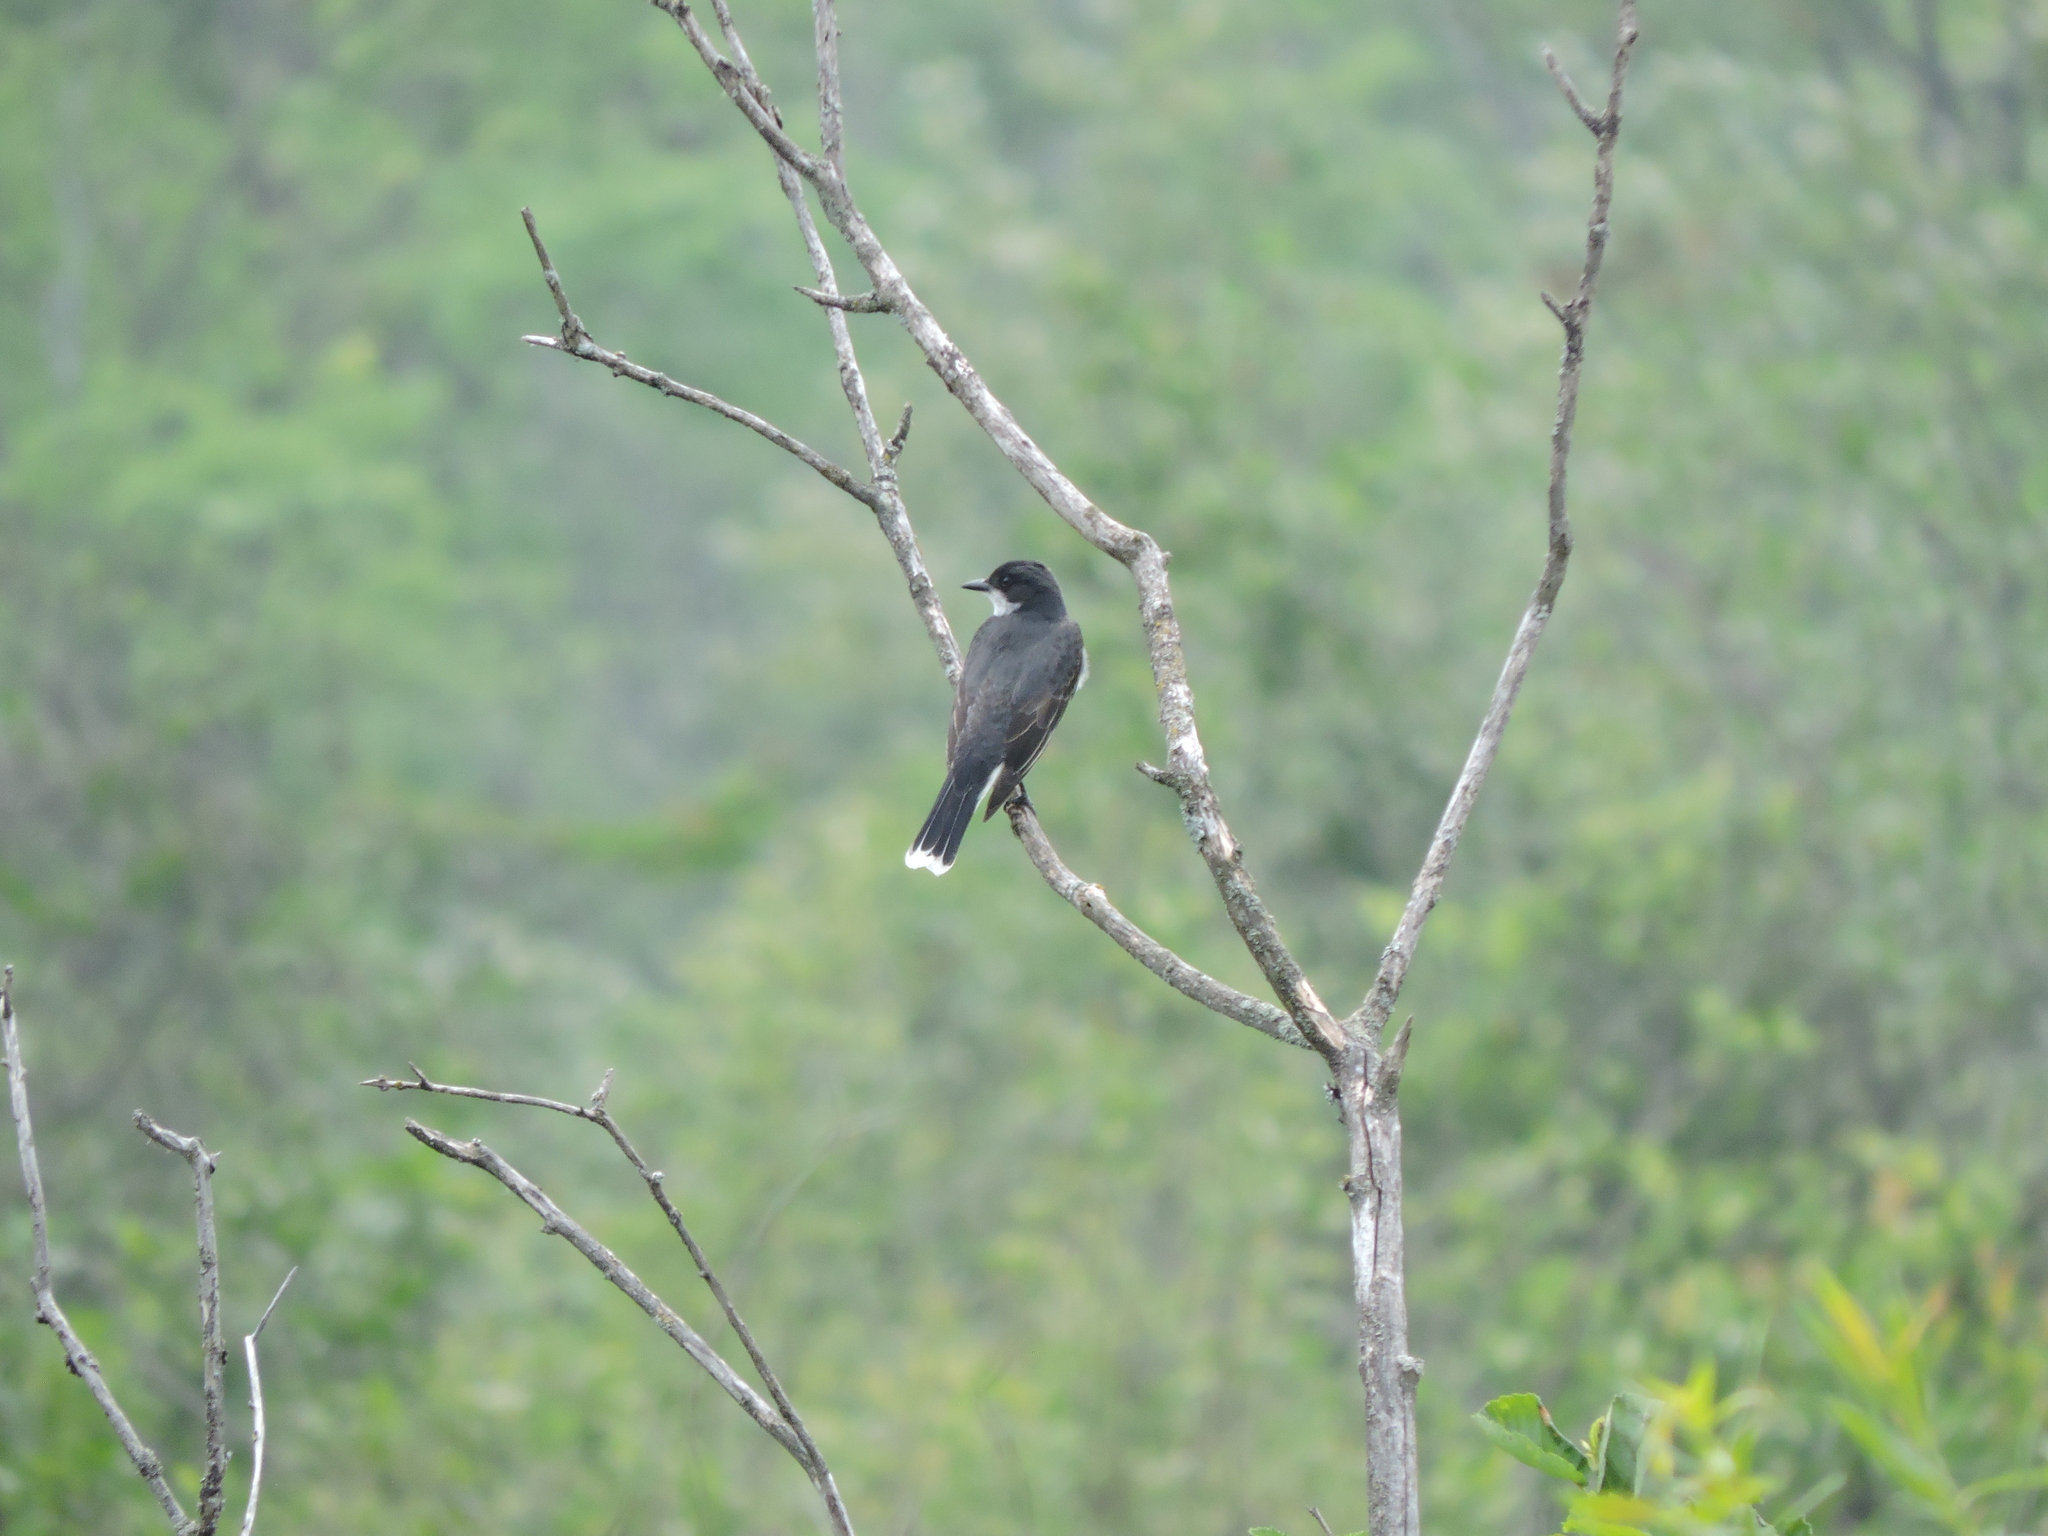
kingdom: Animalia
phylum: Chordata
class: Aves
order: Passeriformes
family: Tyrannidae
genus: Tyrannus
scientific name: Tyrannus tyrannus
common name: Eastern kingbird
